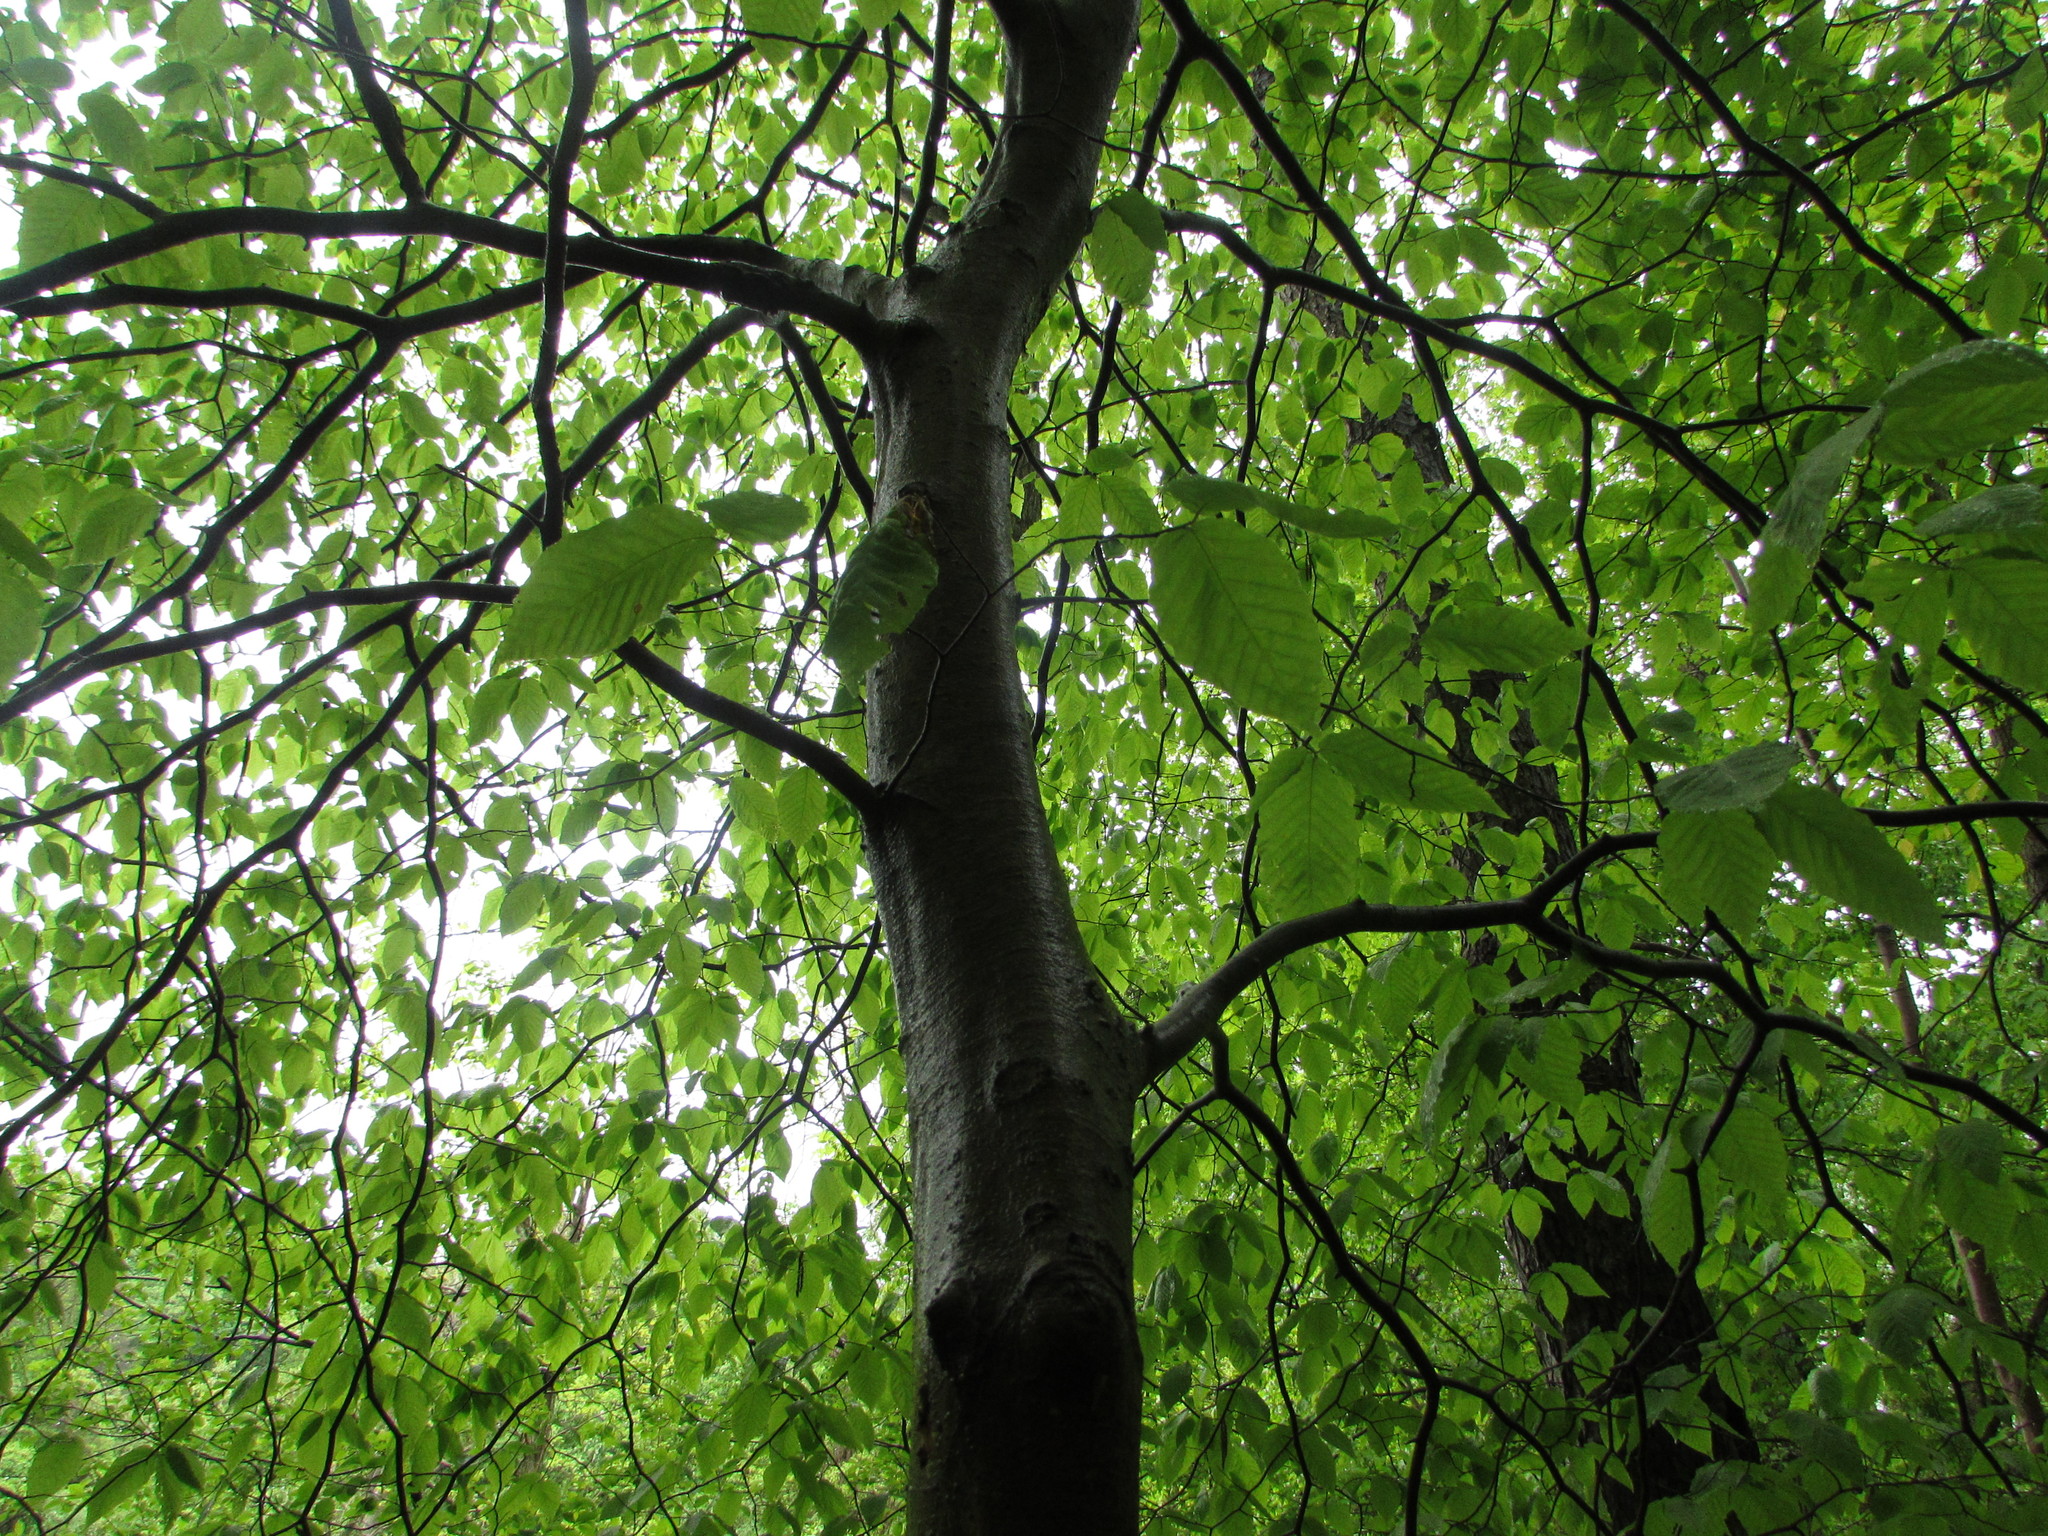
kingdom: Plantae
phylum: Tracheophyta
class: Magnoliopsida
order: Fagales
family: Fagaceae
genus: Fagus
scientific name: Fagus grandifolia
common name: American beech
